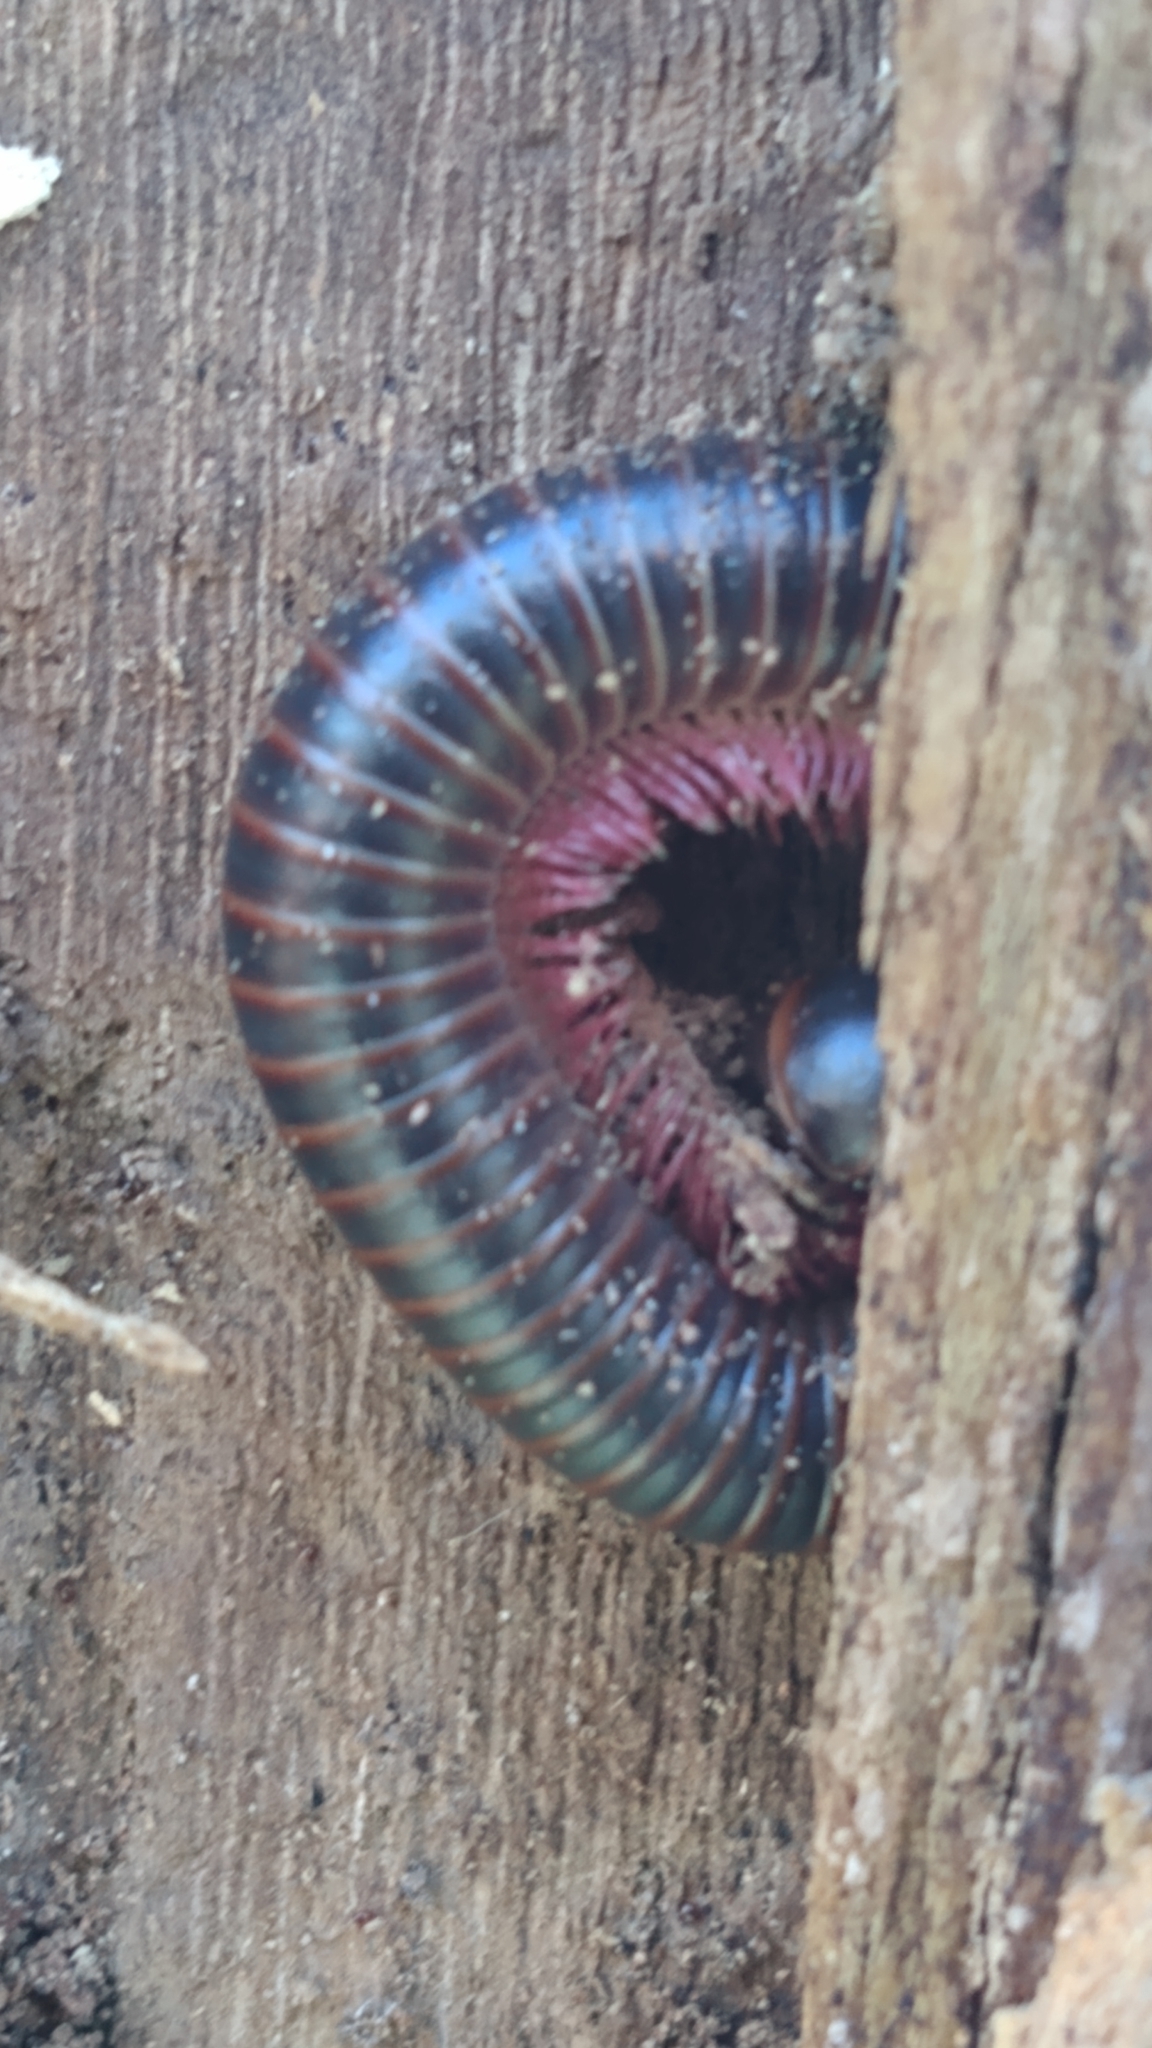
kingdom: Animalia
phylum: Arthropoda
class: Diplopoda
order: Spirobolida
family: Spirobolidae
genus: Narceus
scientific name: Narceus
